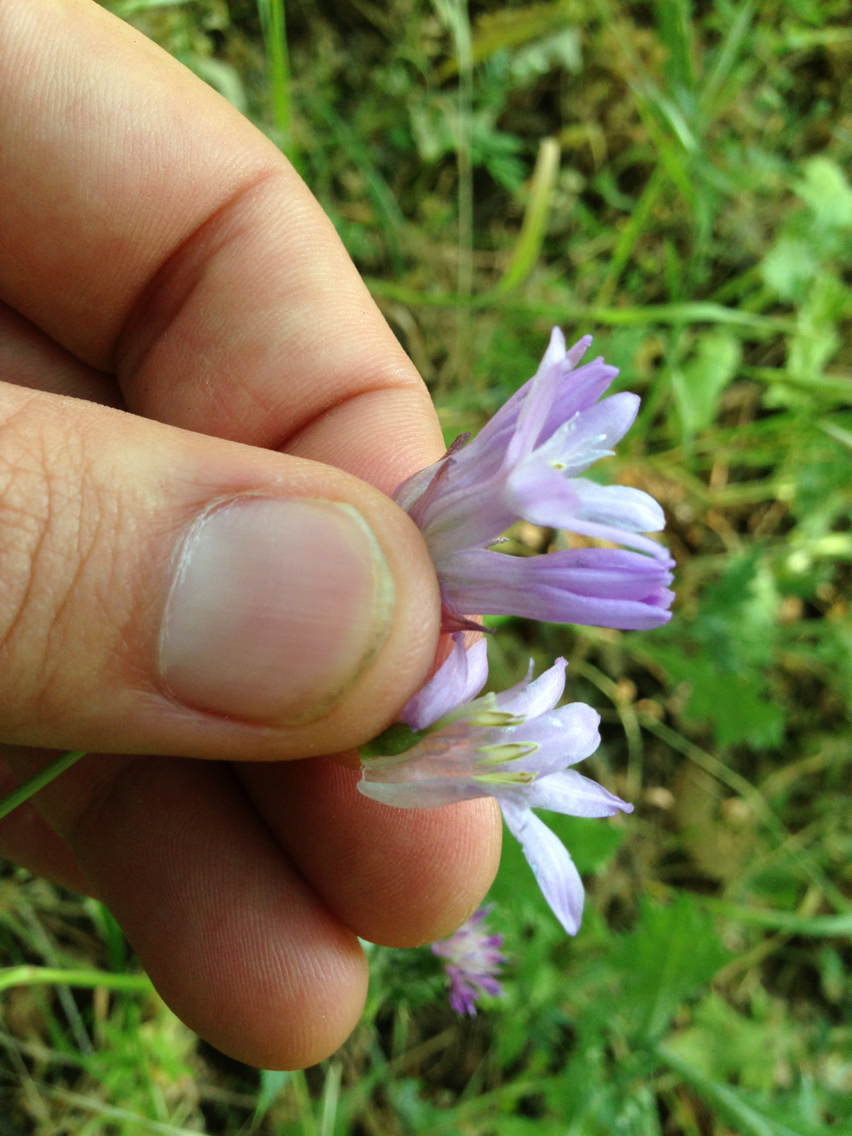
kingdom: Plantae
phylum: Tracheophyta
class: Liliopsida
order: Asparagales
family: Asparagaceae
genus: Dichelostemma
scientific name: Dichelostemma congestum
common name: Fork-tooth ookow
